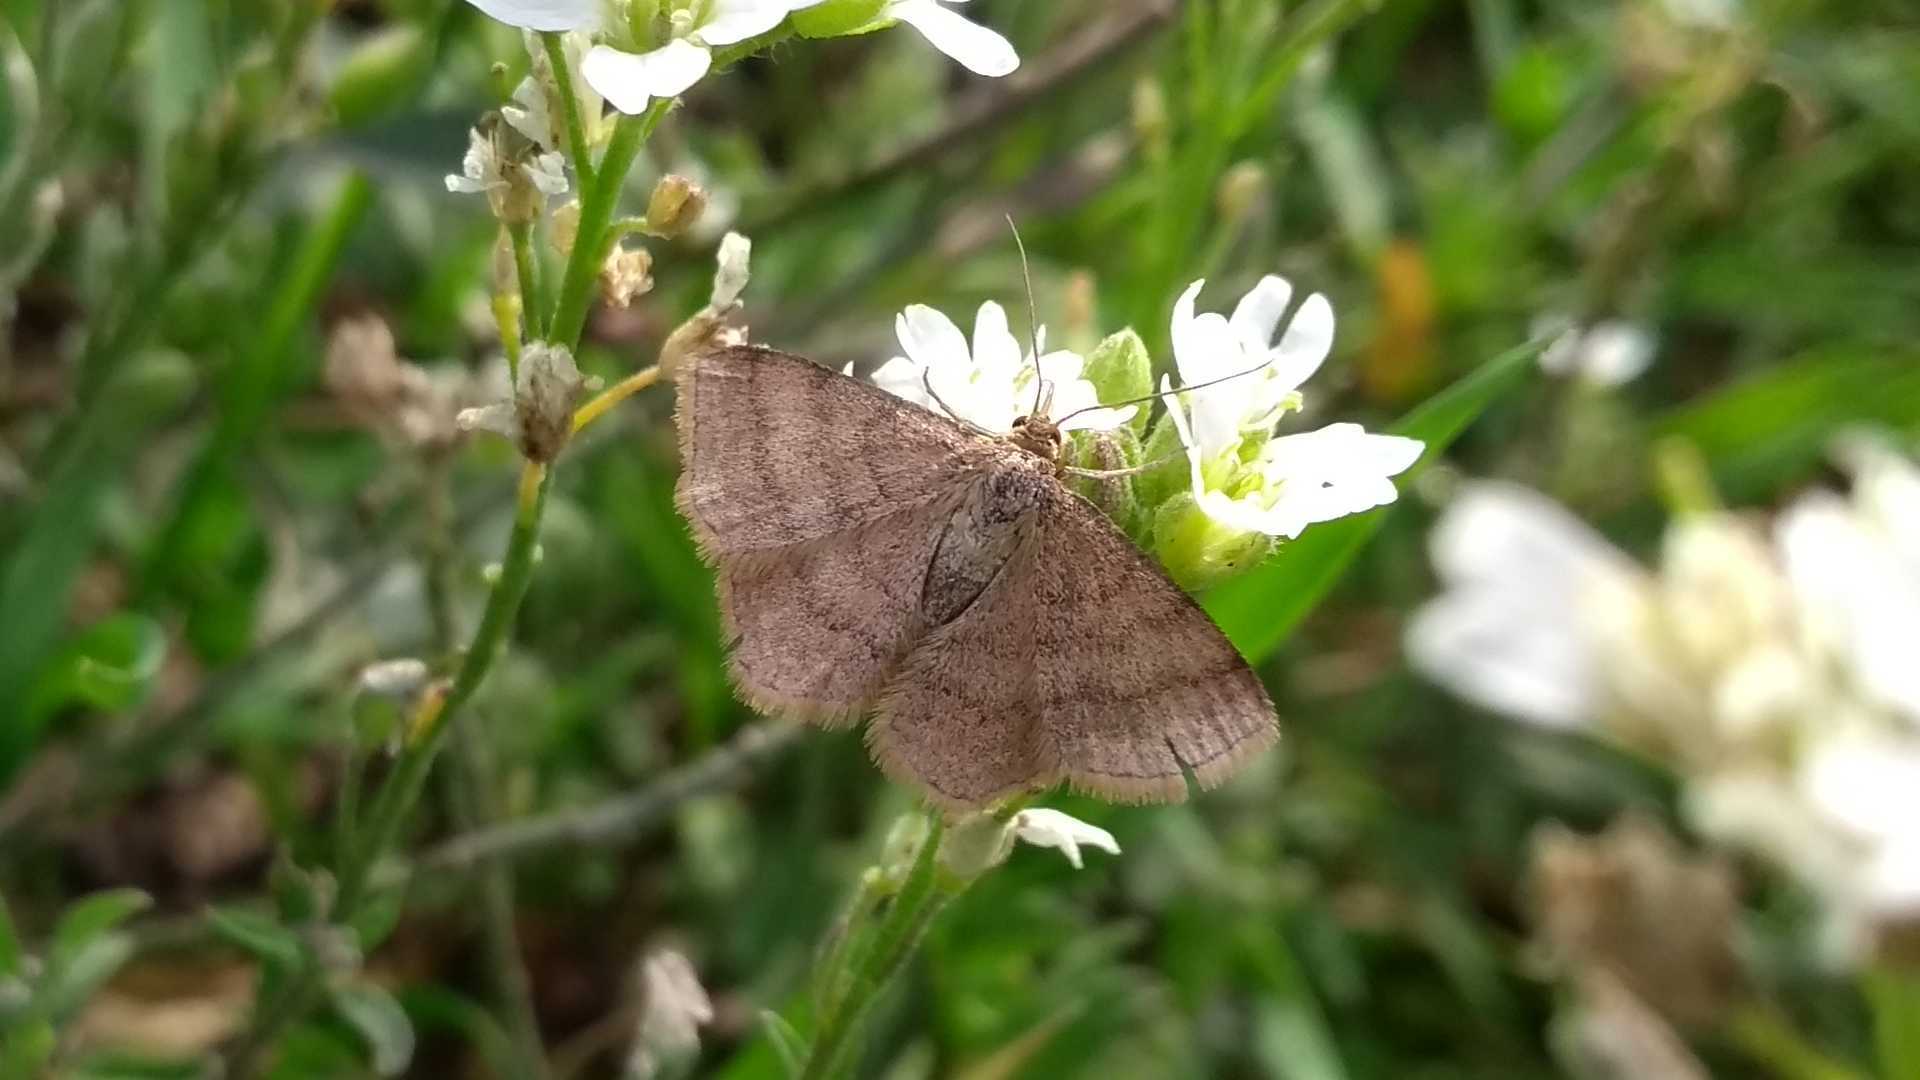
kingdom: Animalia
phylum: Arthropoda
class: Insecta
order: Lepidoptera
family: Geometridae
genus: Scopula
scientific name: Scopula rubiginata
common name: Tawny wave
